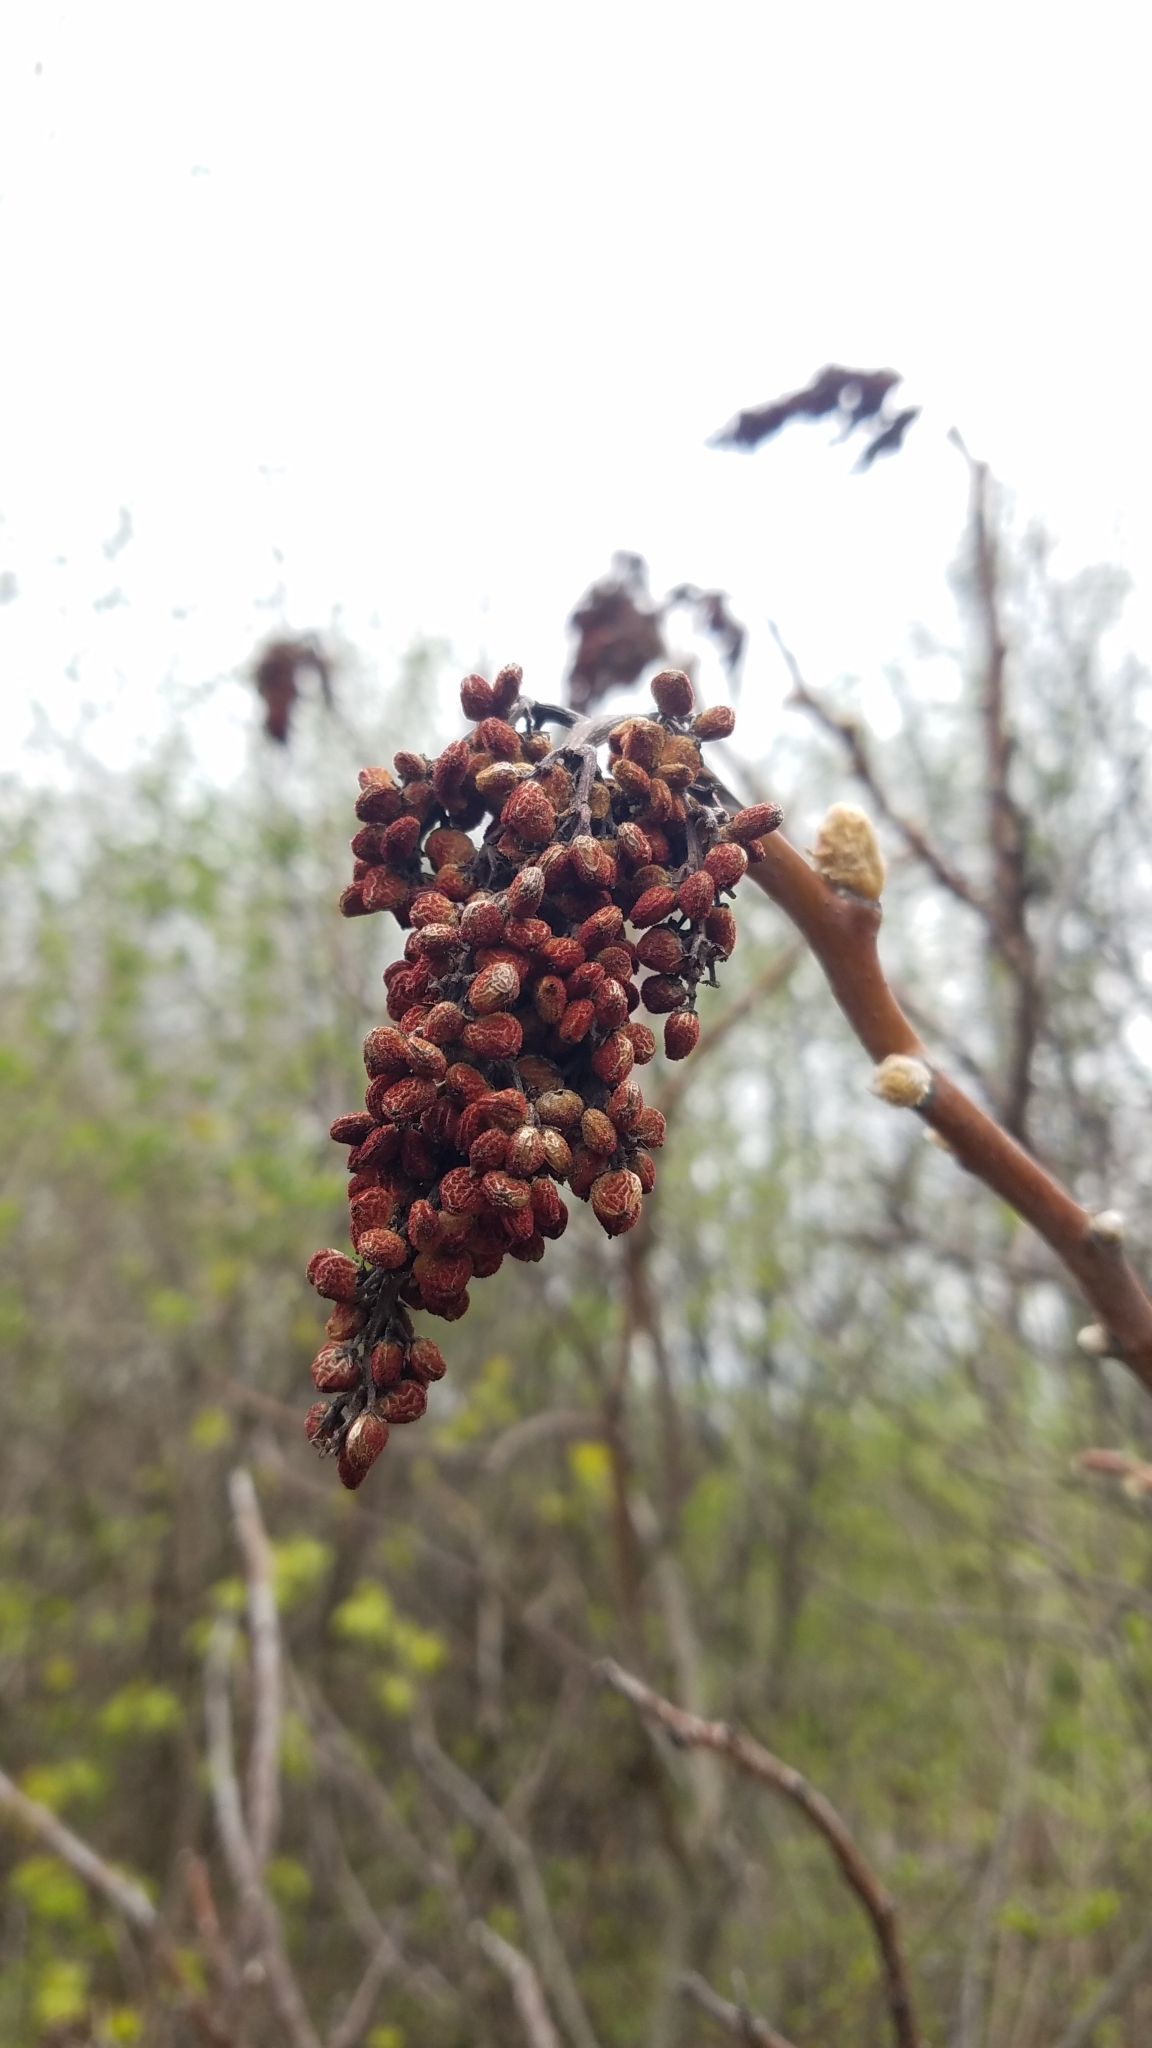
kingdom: Plantae
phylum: Tracheophyta
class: Magnoliopsida
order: Sapindales
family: Anacardiaceae
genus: Rhus
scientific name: Rhus glabra
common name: Scarlet sumac
